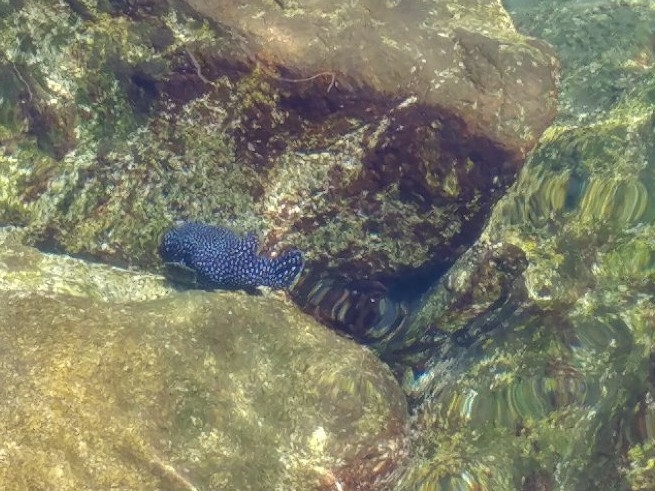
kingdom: Animalia
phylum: Chordata
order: Tetraodontiformes
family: Tetraodontidae
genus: Arothron
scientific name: Arothron meleagris
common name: Guinea-fowl pufferfish
